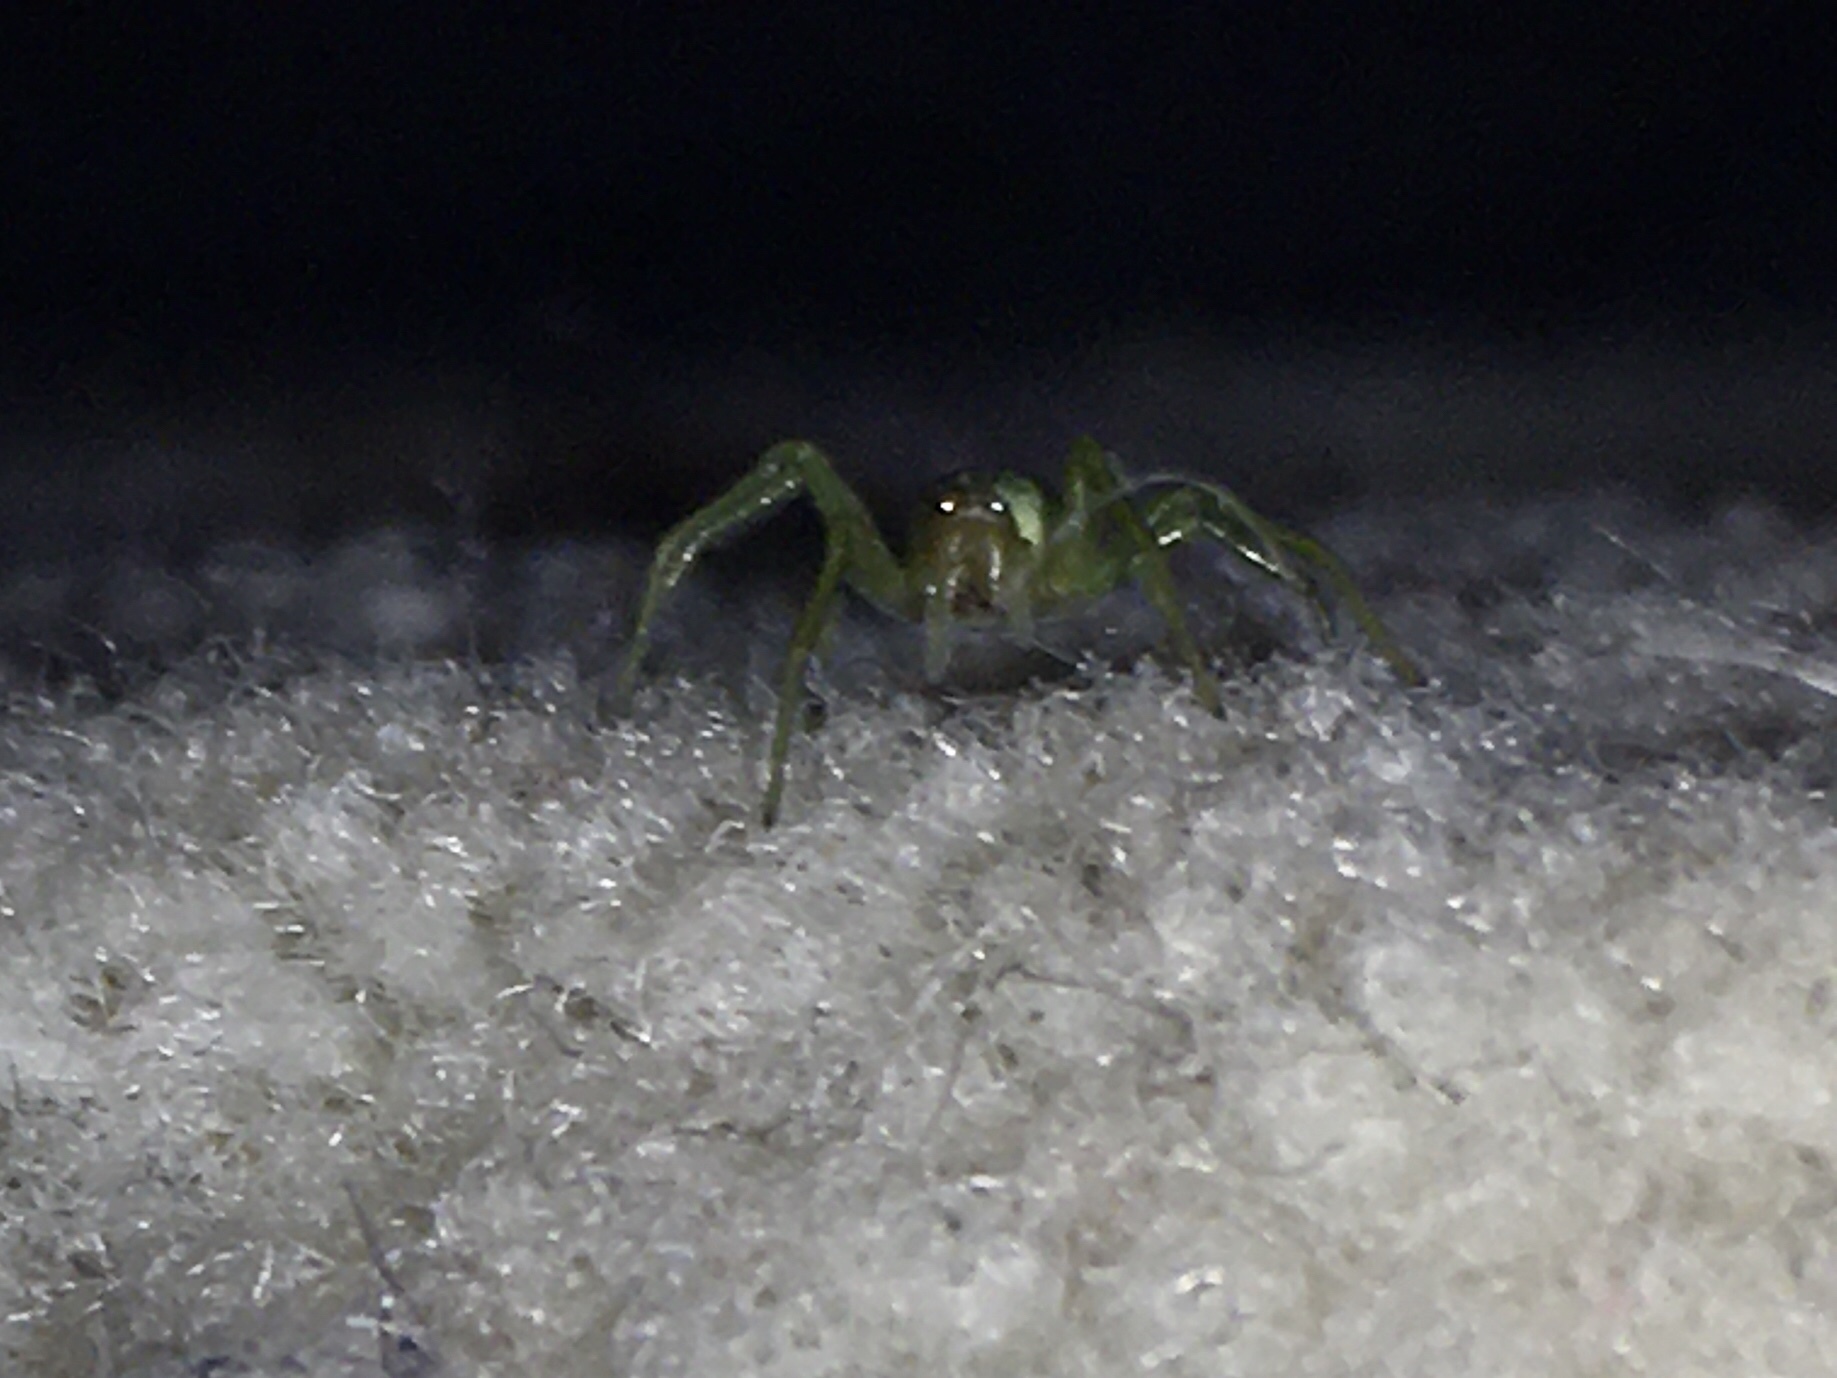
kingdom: Animalia
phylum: Arthropoda
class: Arachnida
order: Araneae
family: Dictynidae
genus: Nigma
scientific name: Nigma walckenaeri
